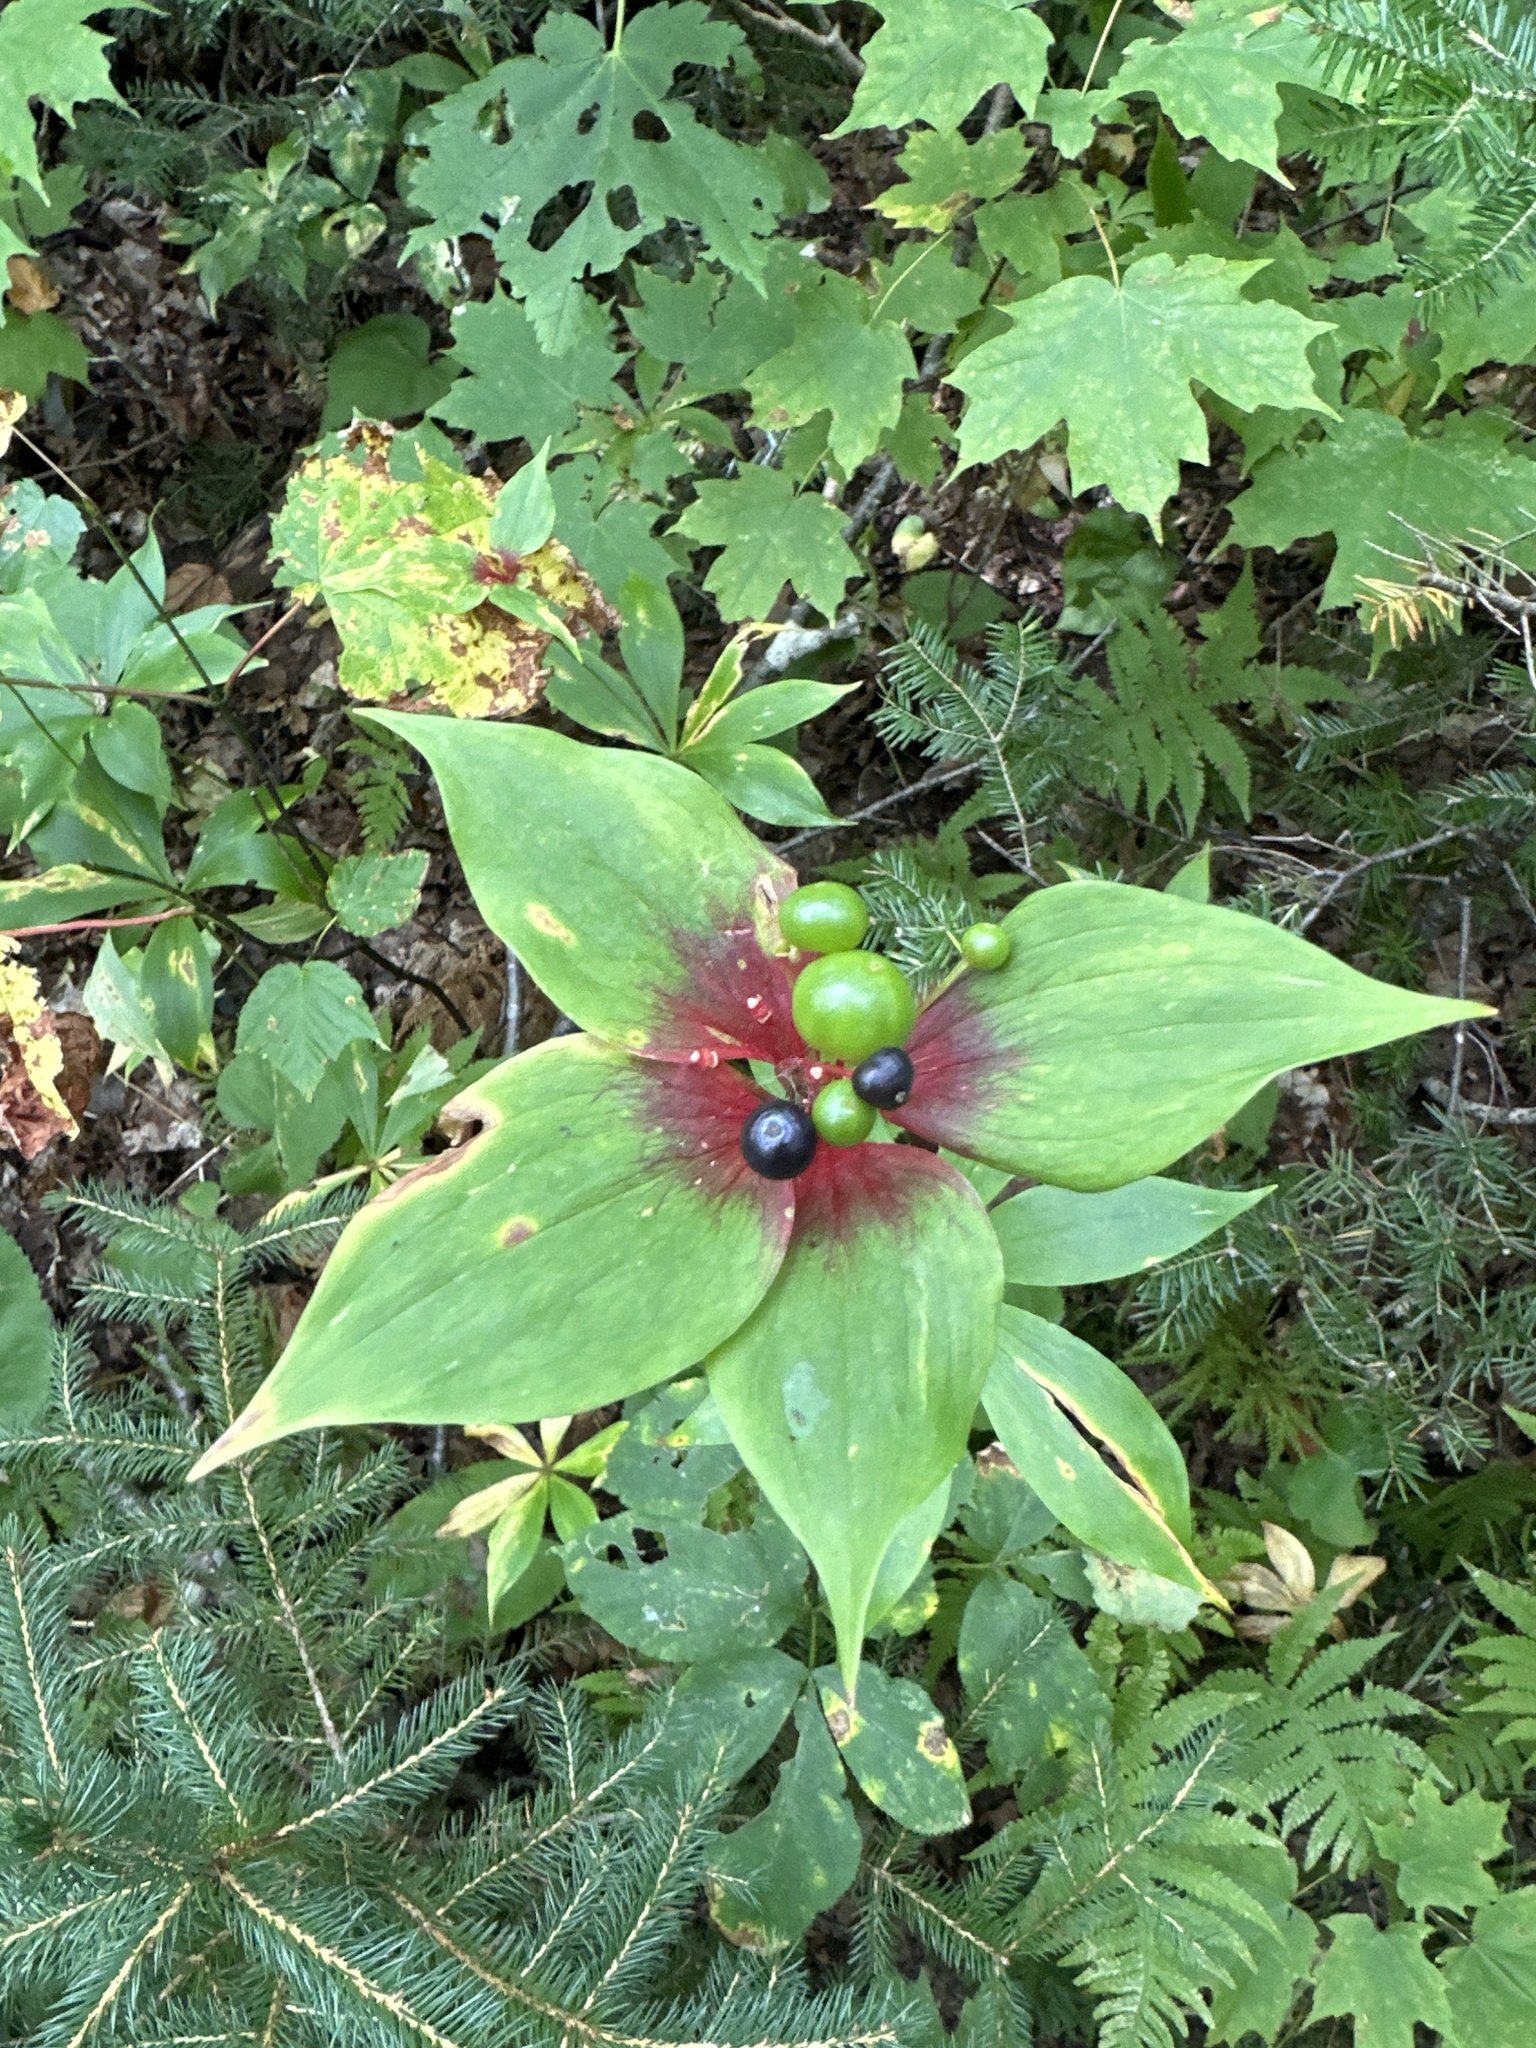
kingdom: Plantae
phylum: Tracheophyta
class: Liliopsida
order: Liliales
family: Liliaceae
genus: Medeola
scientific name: Medeola virginiana
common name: Indian cucumber-root
